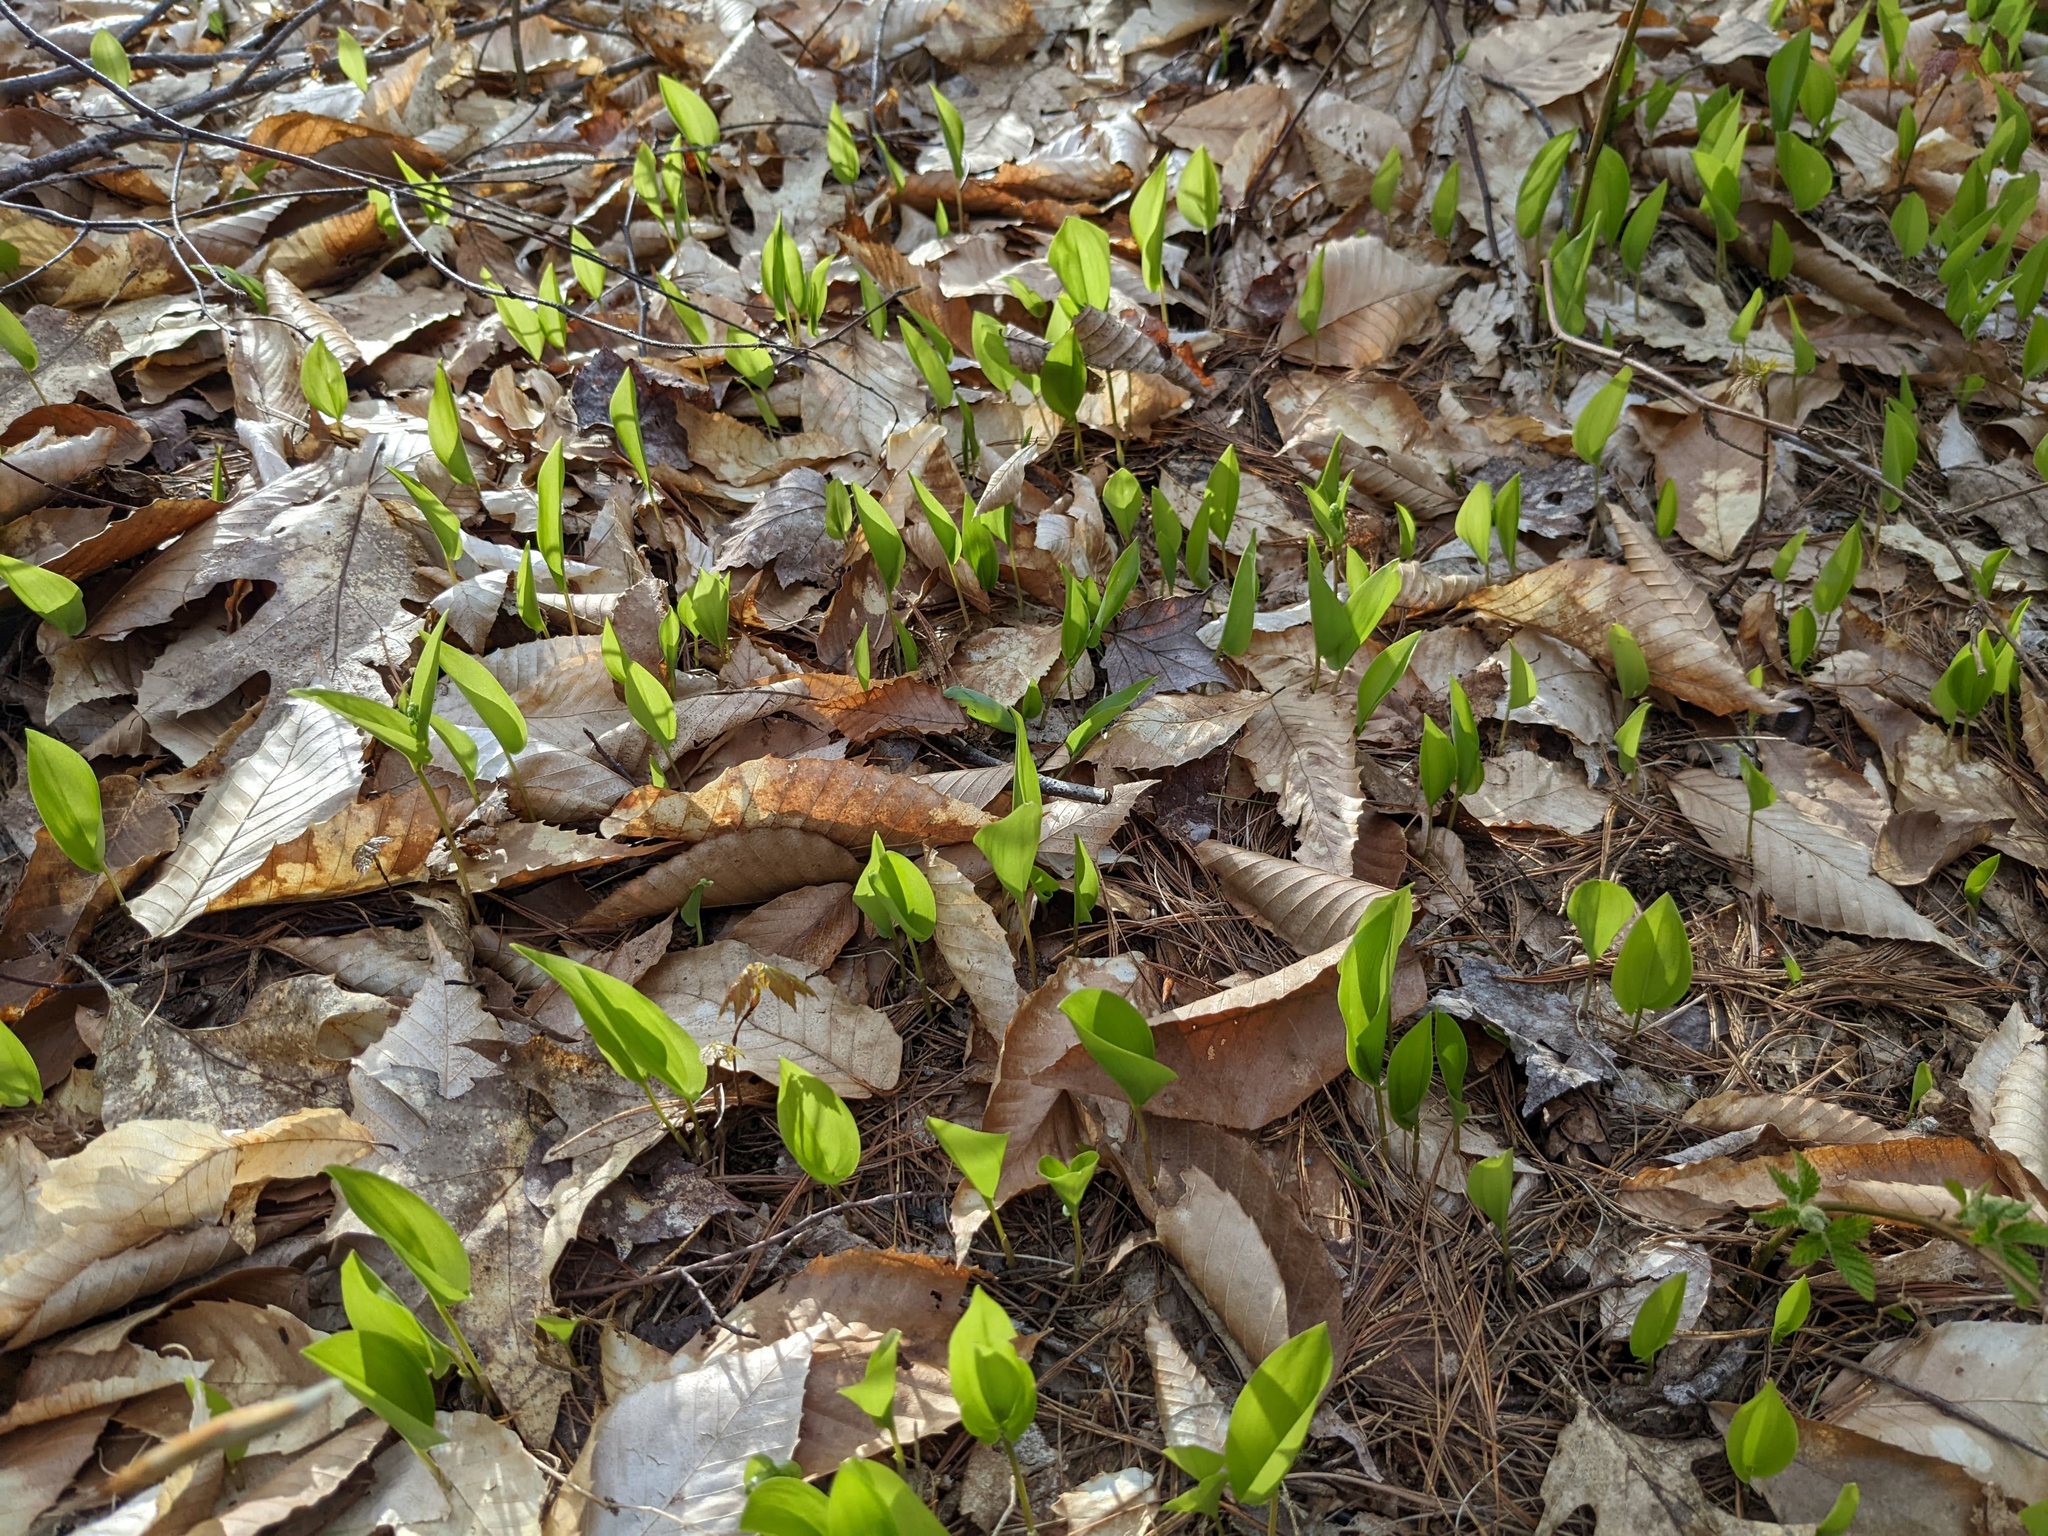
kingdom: Plantae
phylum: Tracheophyta
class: Liliopsida
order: Asparagales
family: Asparagaceae
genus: Maianthemum
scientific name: Maianthemum canadense
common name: False lily-of-the-valley
